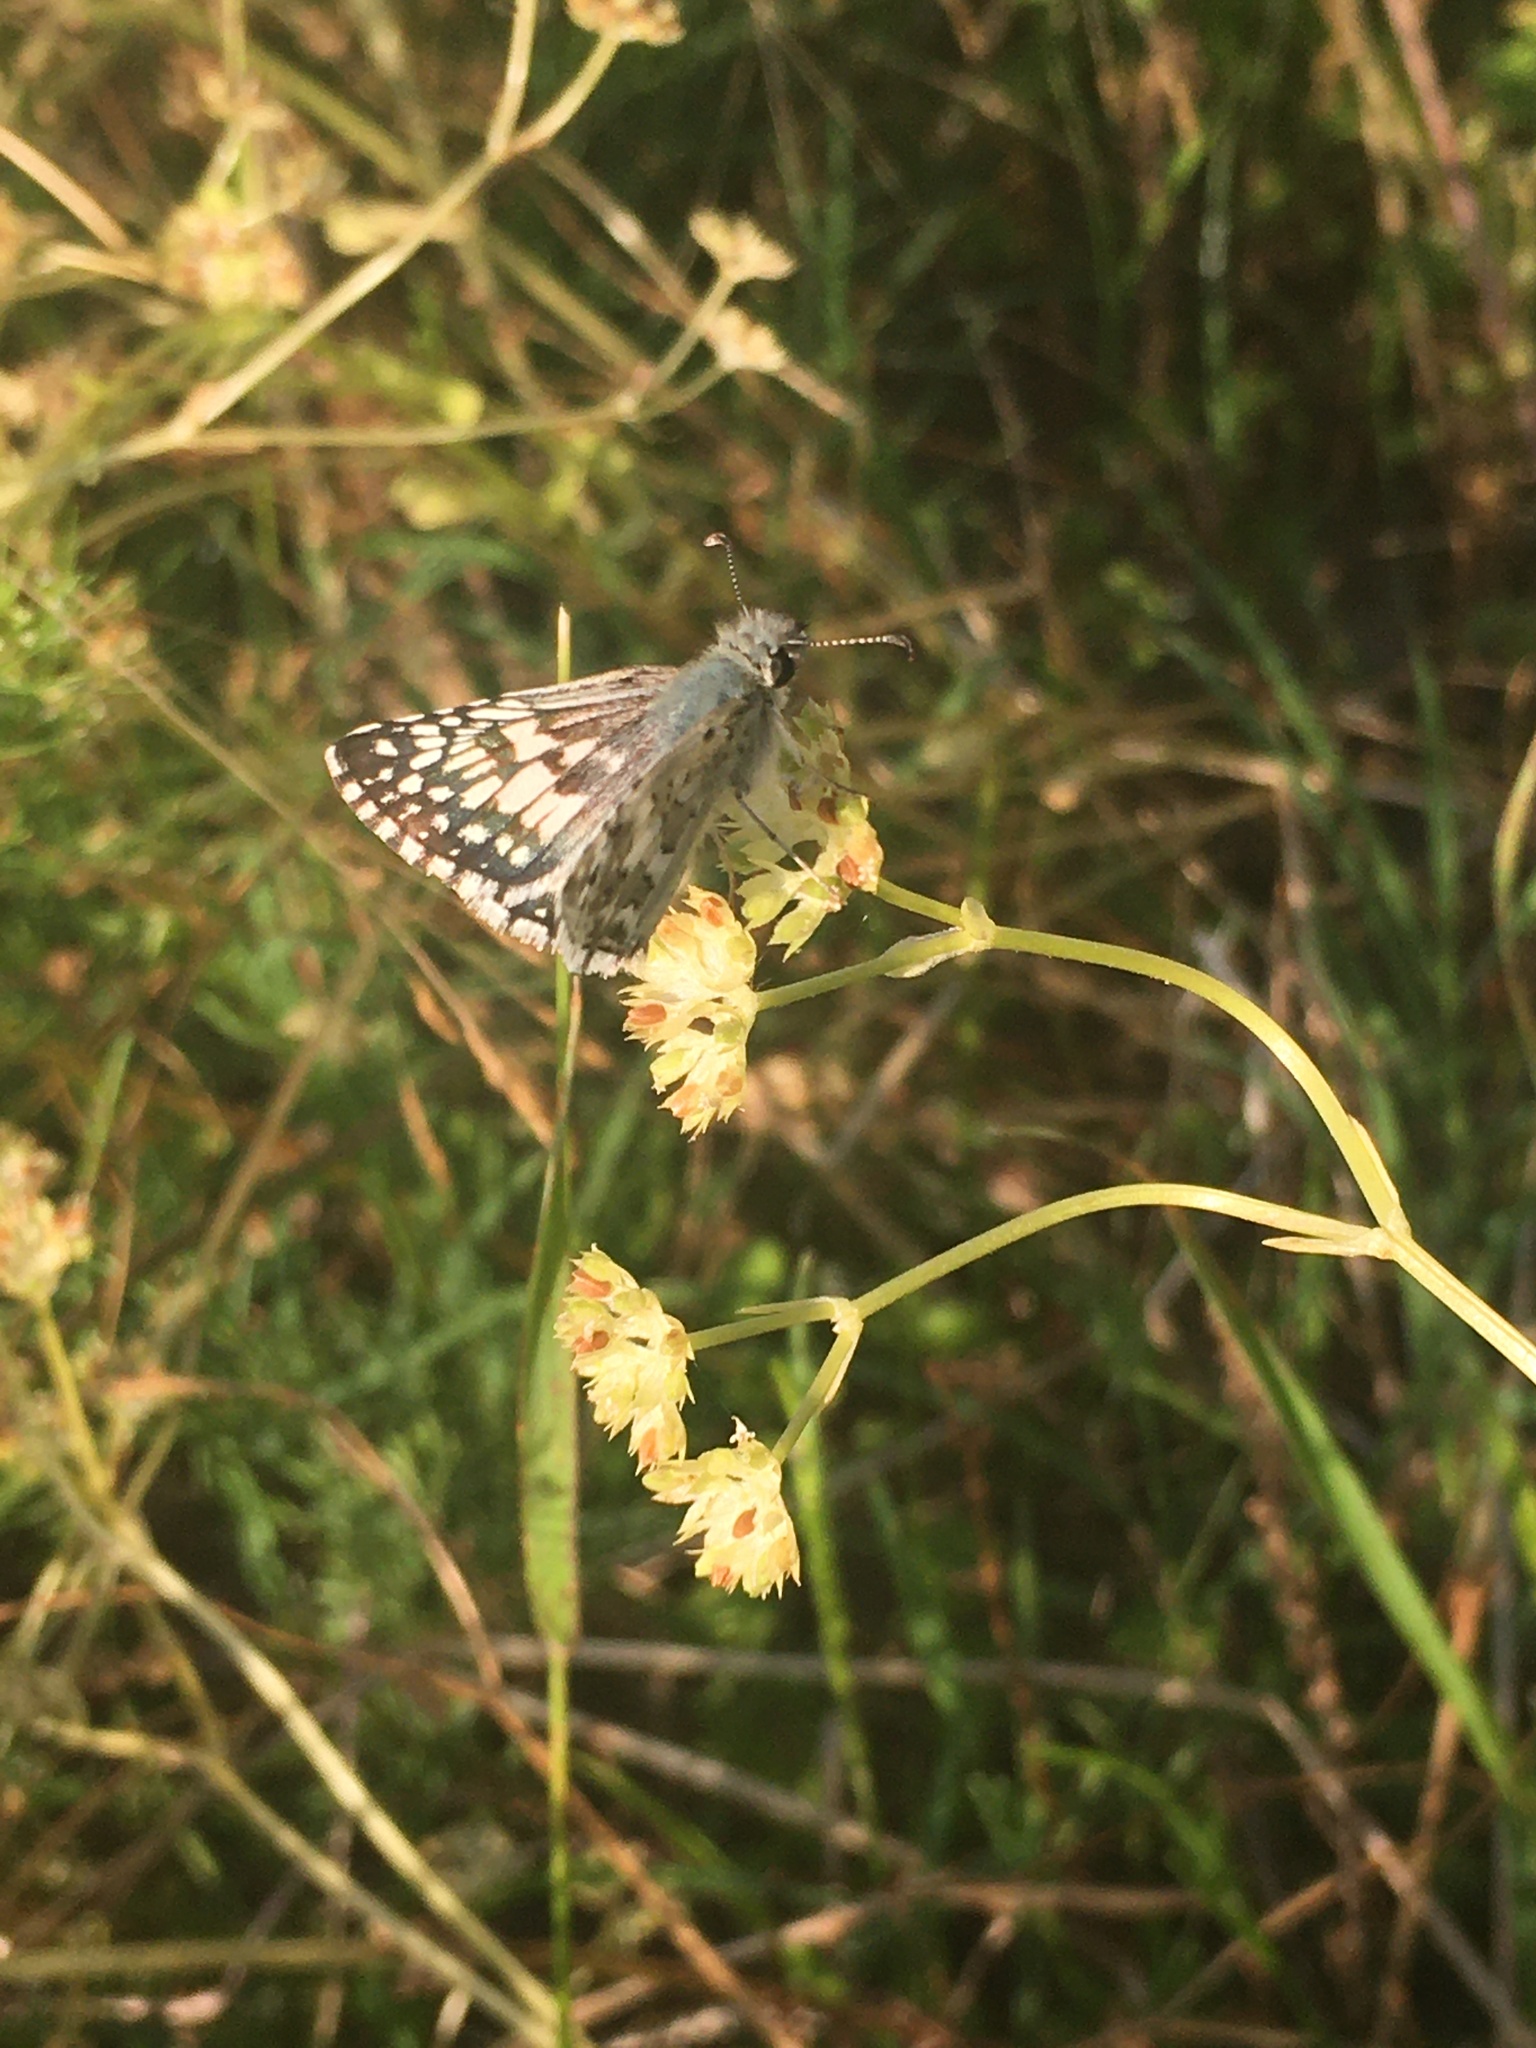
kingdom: Animalia
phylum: Arthropoda
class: Insecta
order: Lepidoptera
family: Hesperiidae
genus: Burnsius
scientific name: Burnsius albezens
